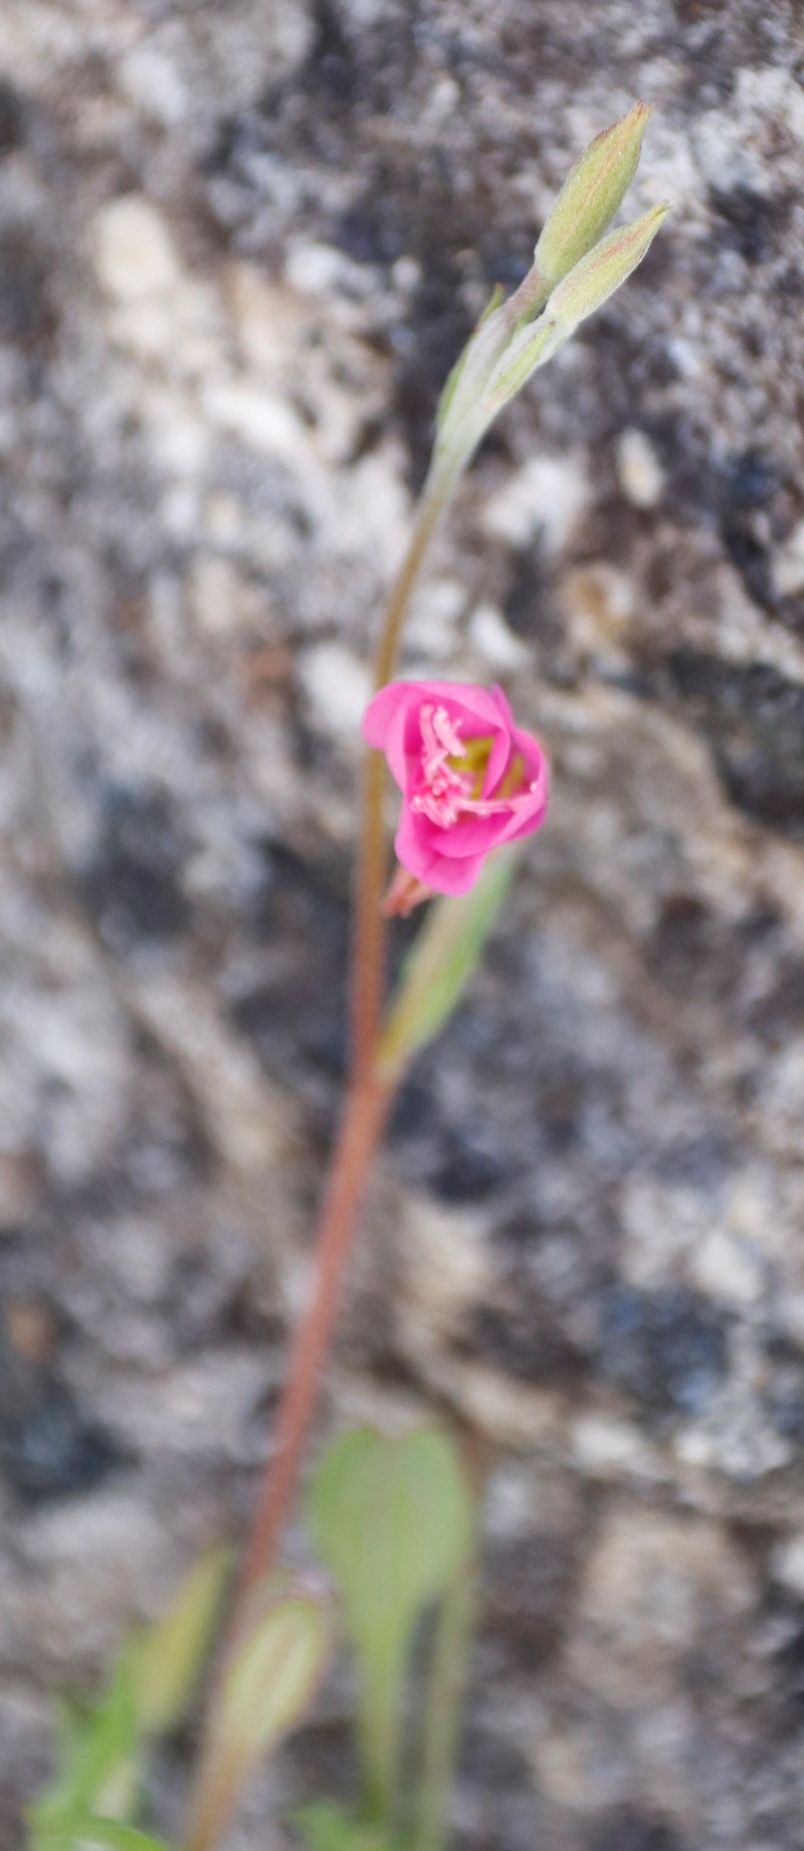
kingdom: Plantae
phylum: Tracheophyta
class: Magnoliopsida
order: Myrtales
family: Onagraceae
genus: Oenothera
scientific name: Oenothera rosea
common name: Rosy evening-primrose
